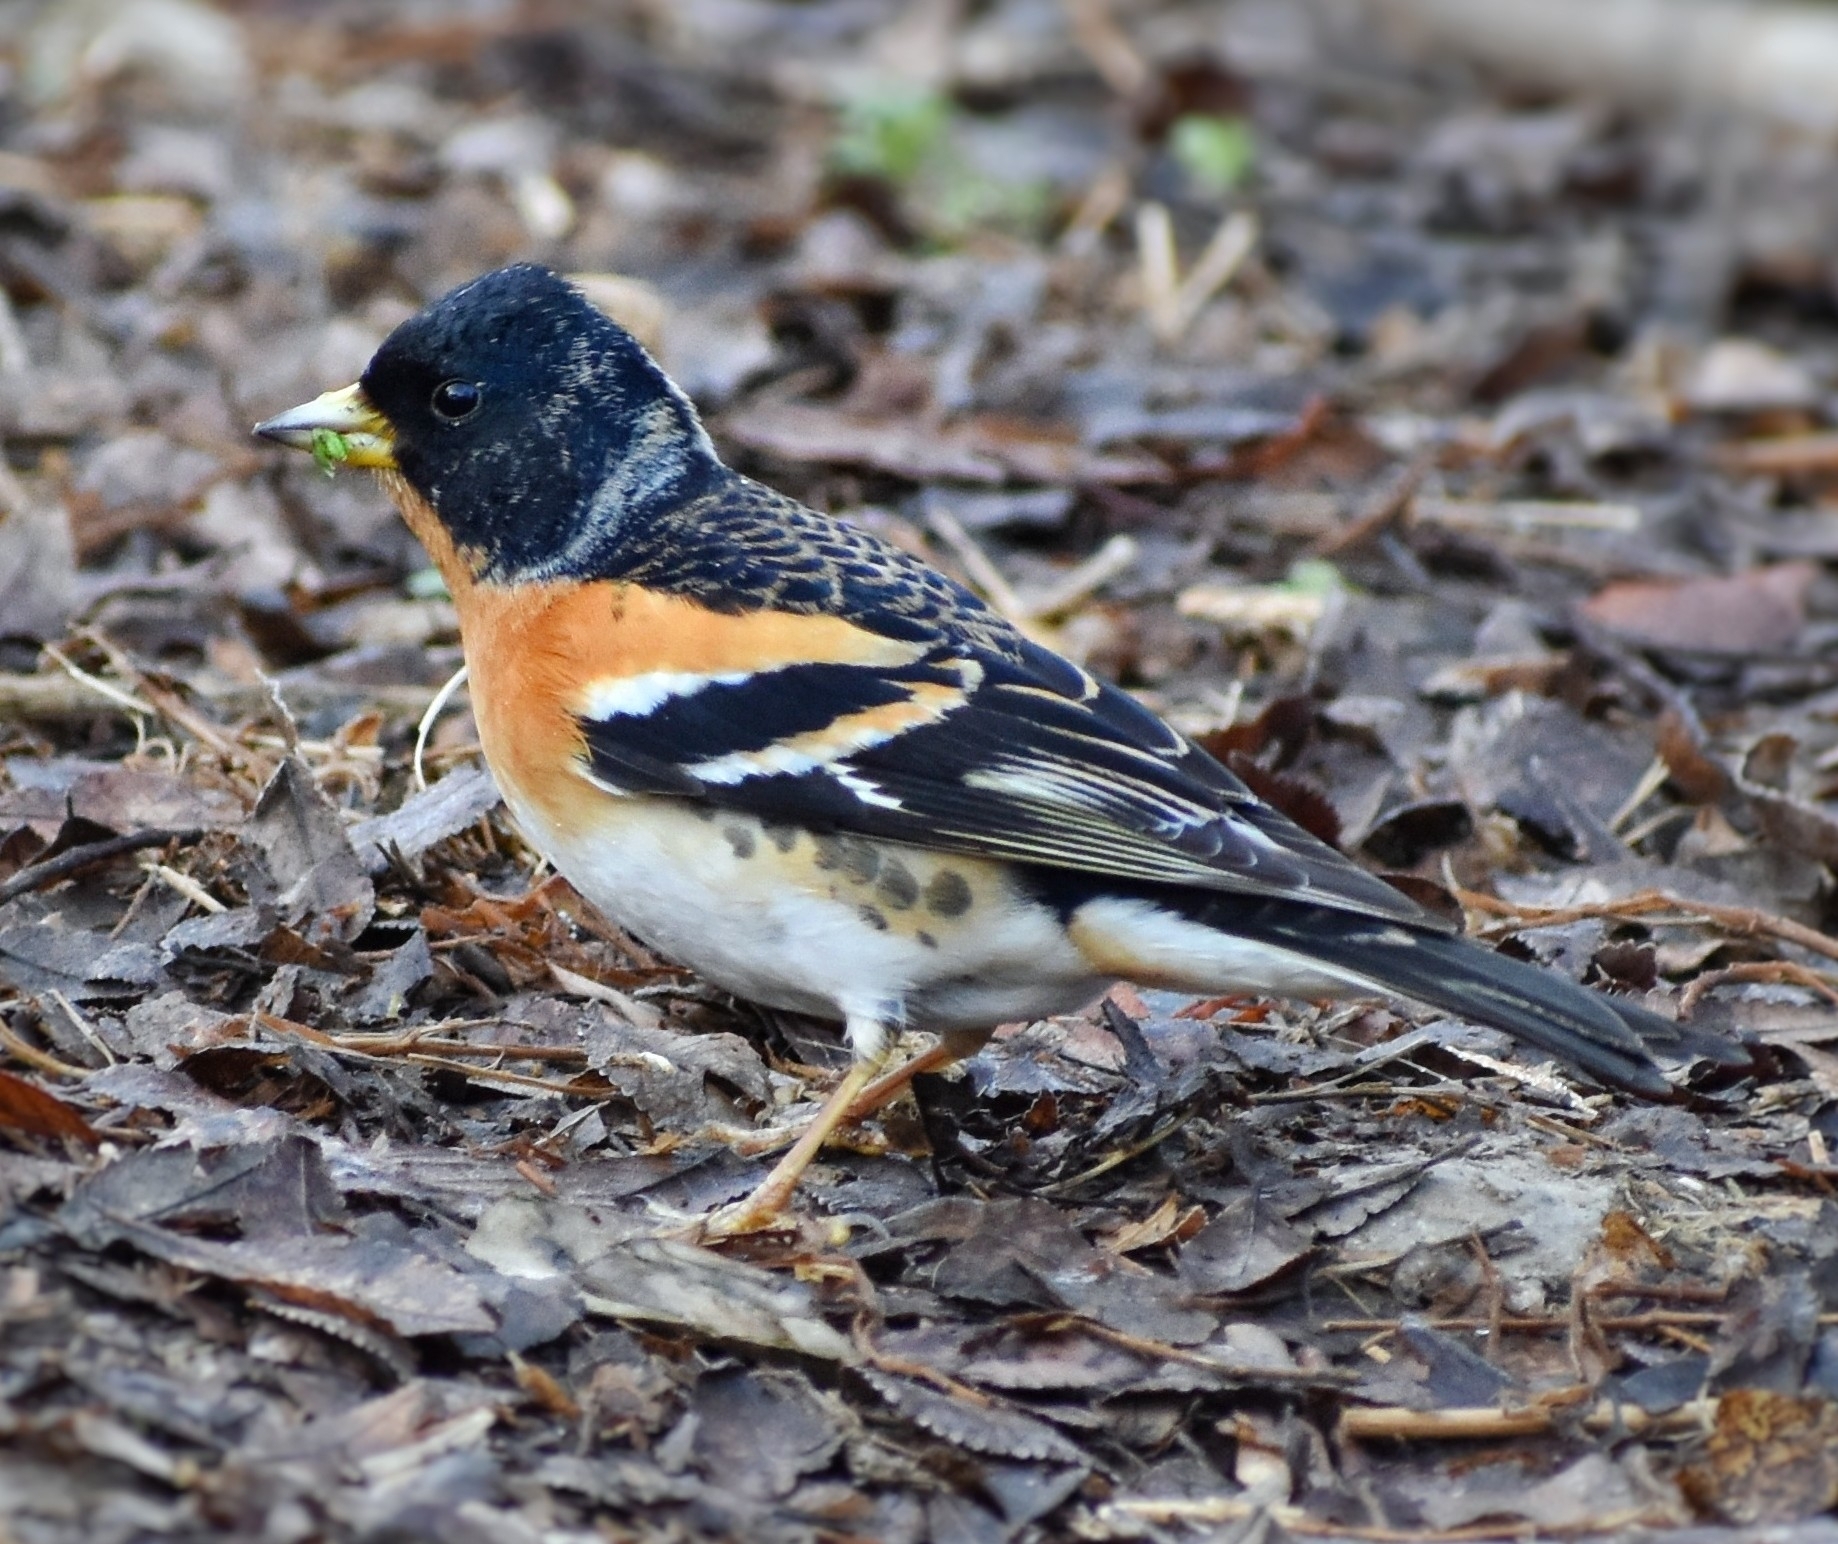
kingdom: Animalia
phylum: Chordata
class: Aves
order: Passeriformes
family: Fringillidae
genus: Fringilla
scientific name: Fringilla montifringilla
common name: Brambling
